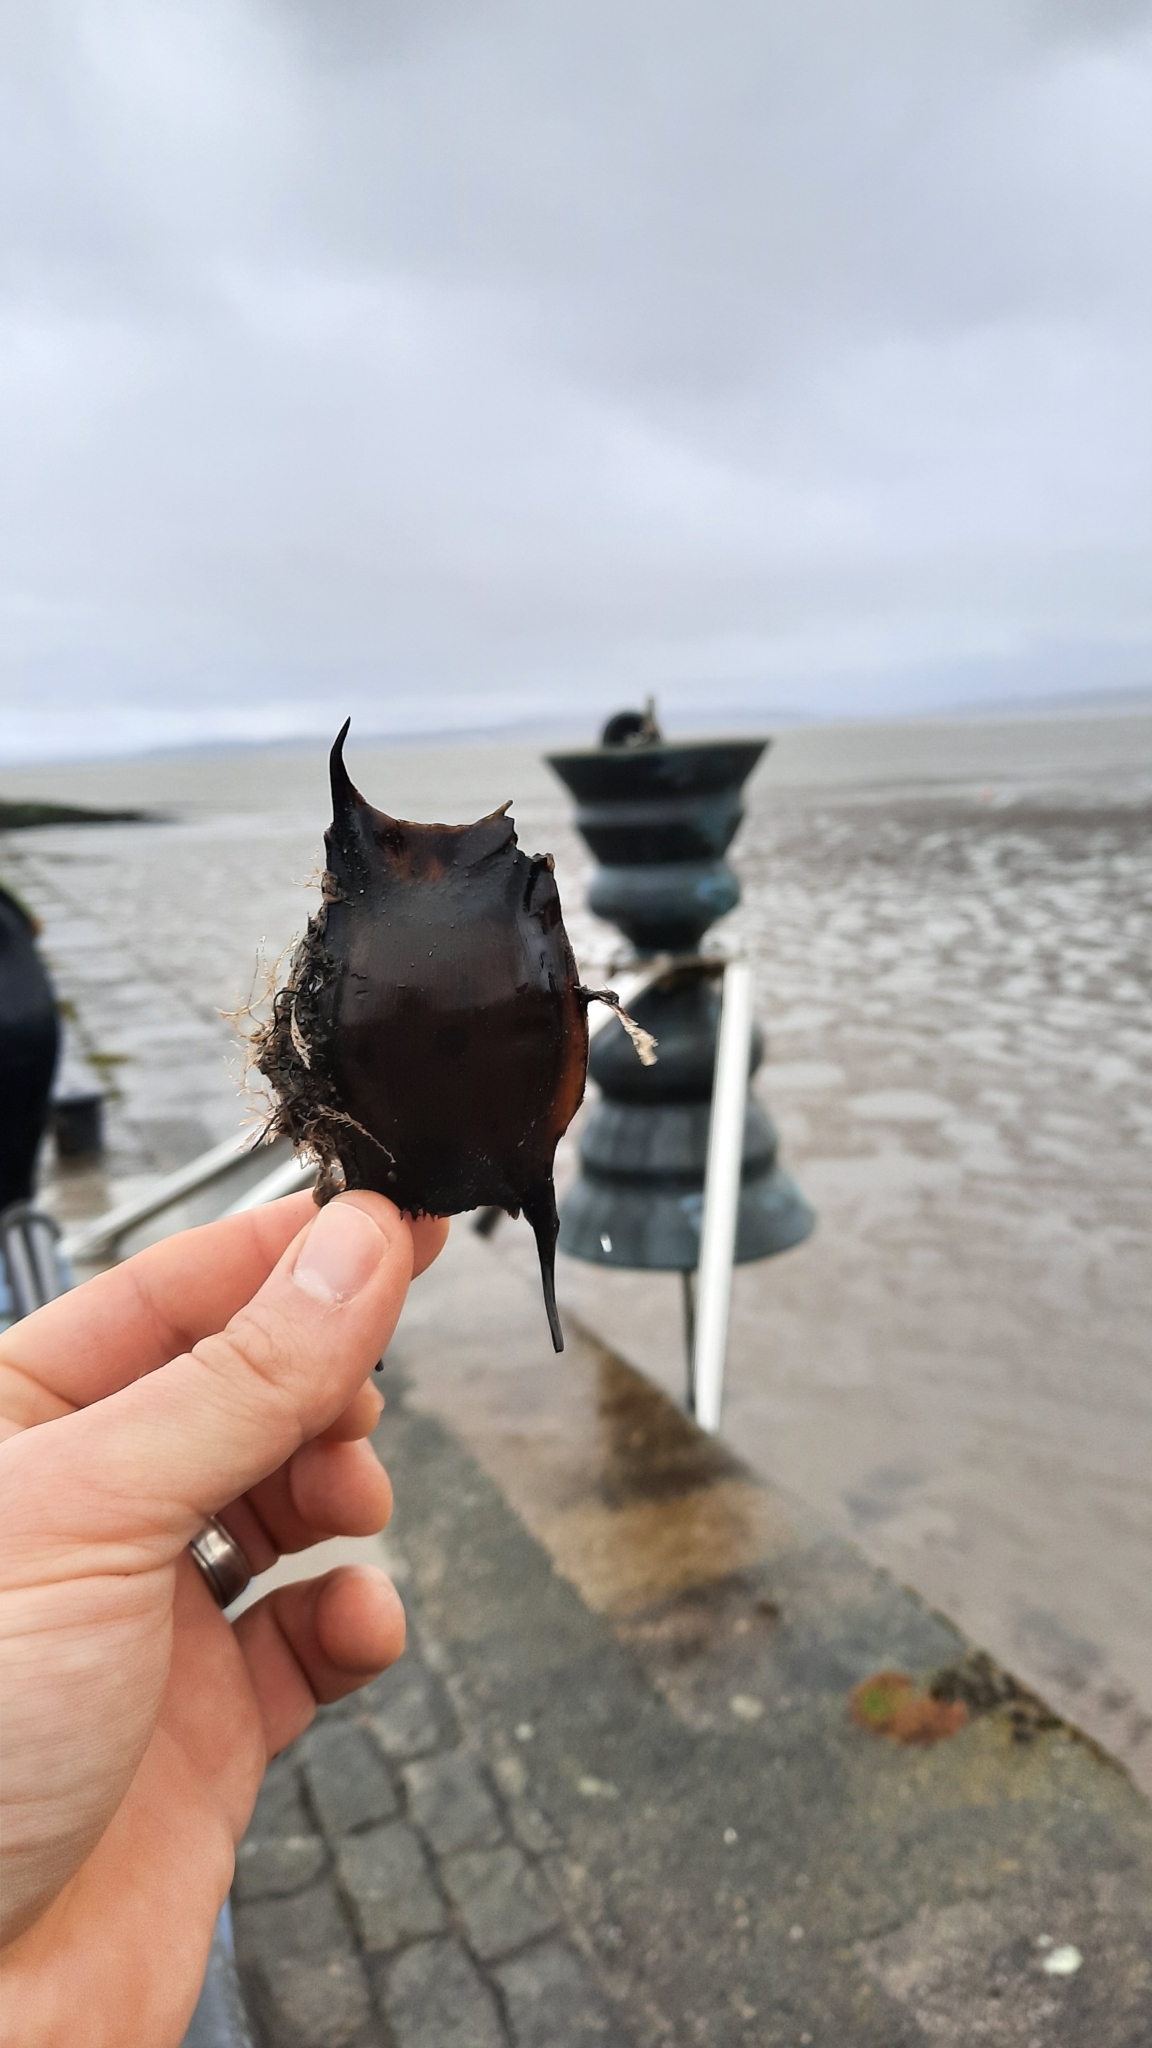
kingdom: Animalia
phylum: Chordata
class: Elasmobranchii
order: Rajiformes
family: Rajidae
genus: Raja
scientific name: Raja clavata
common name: Thornback ray
